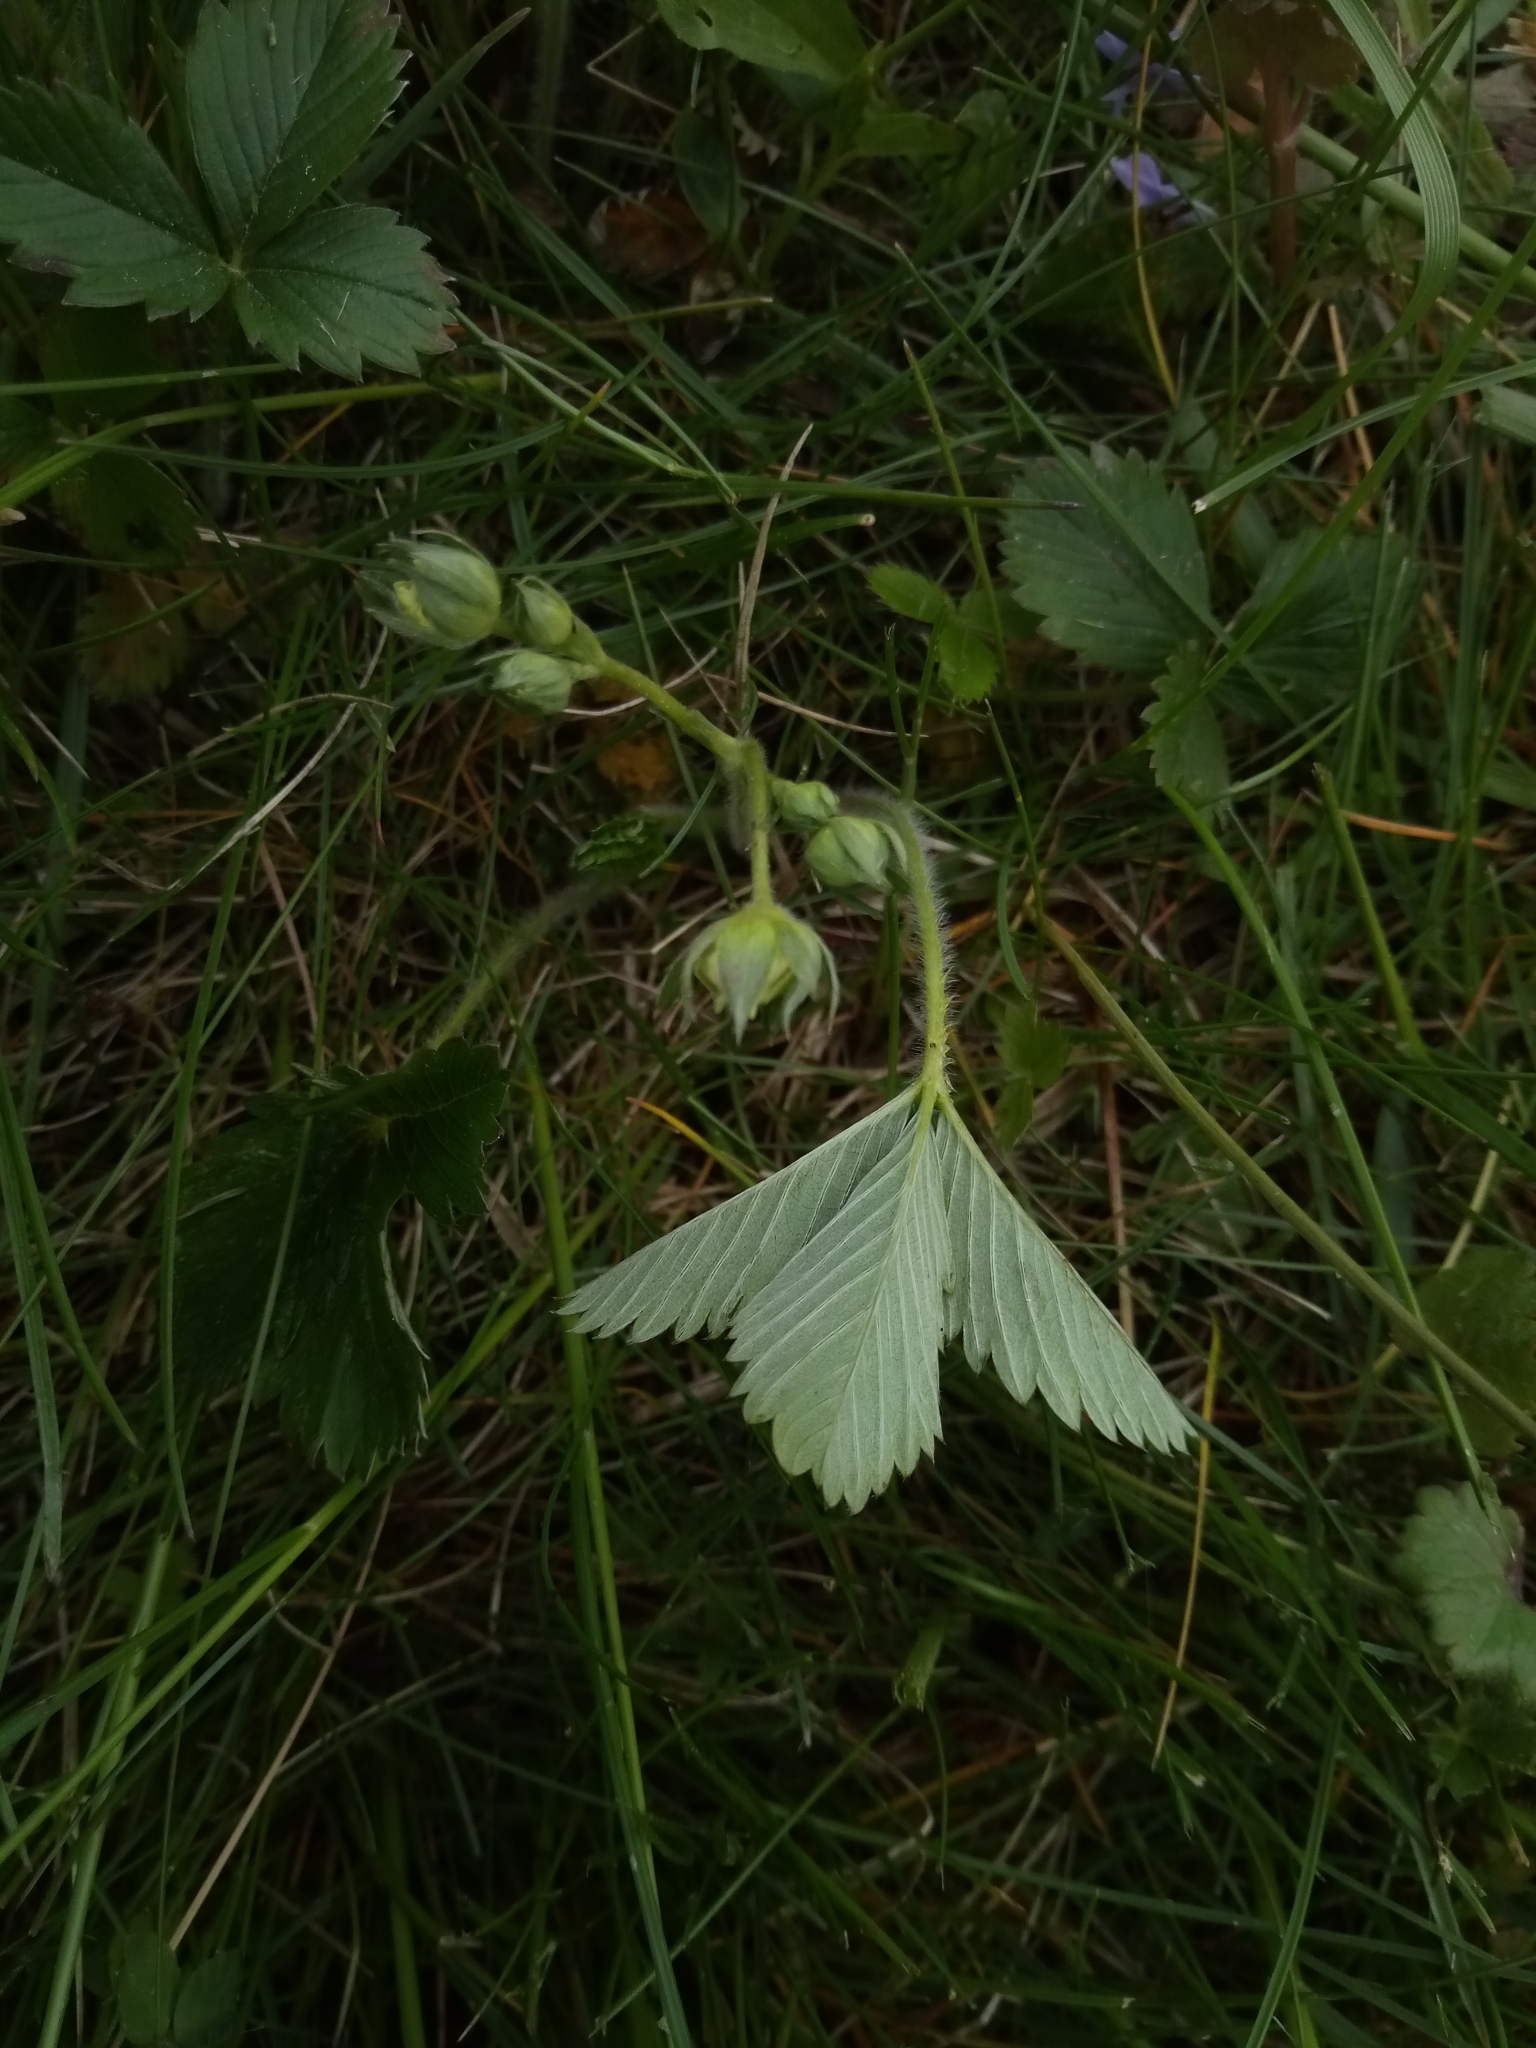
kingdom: Plantae
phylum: Tracheophyta
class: Magnoliopsida
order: Rosales
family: Rosaceae
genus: Fragaria
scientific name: Fragaria viridis
